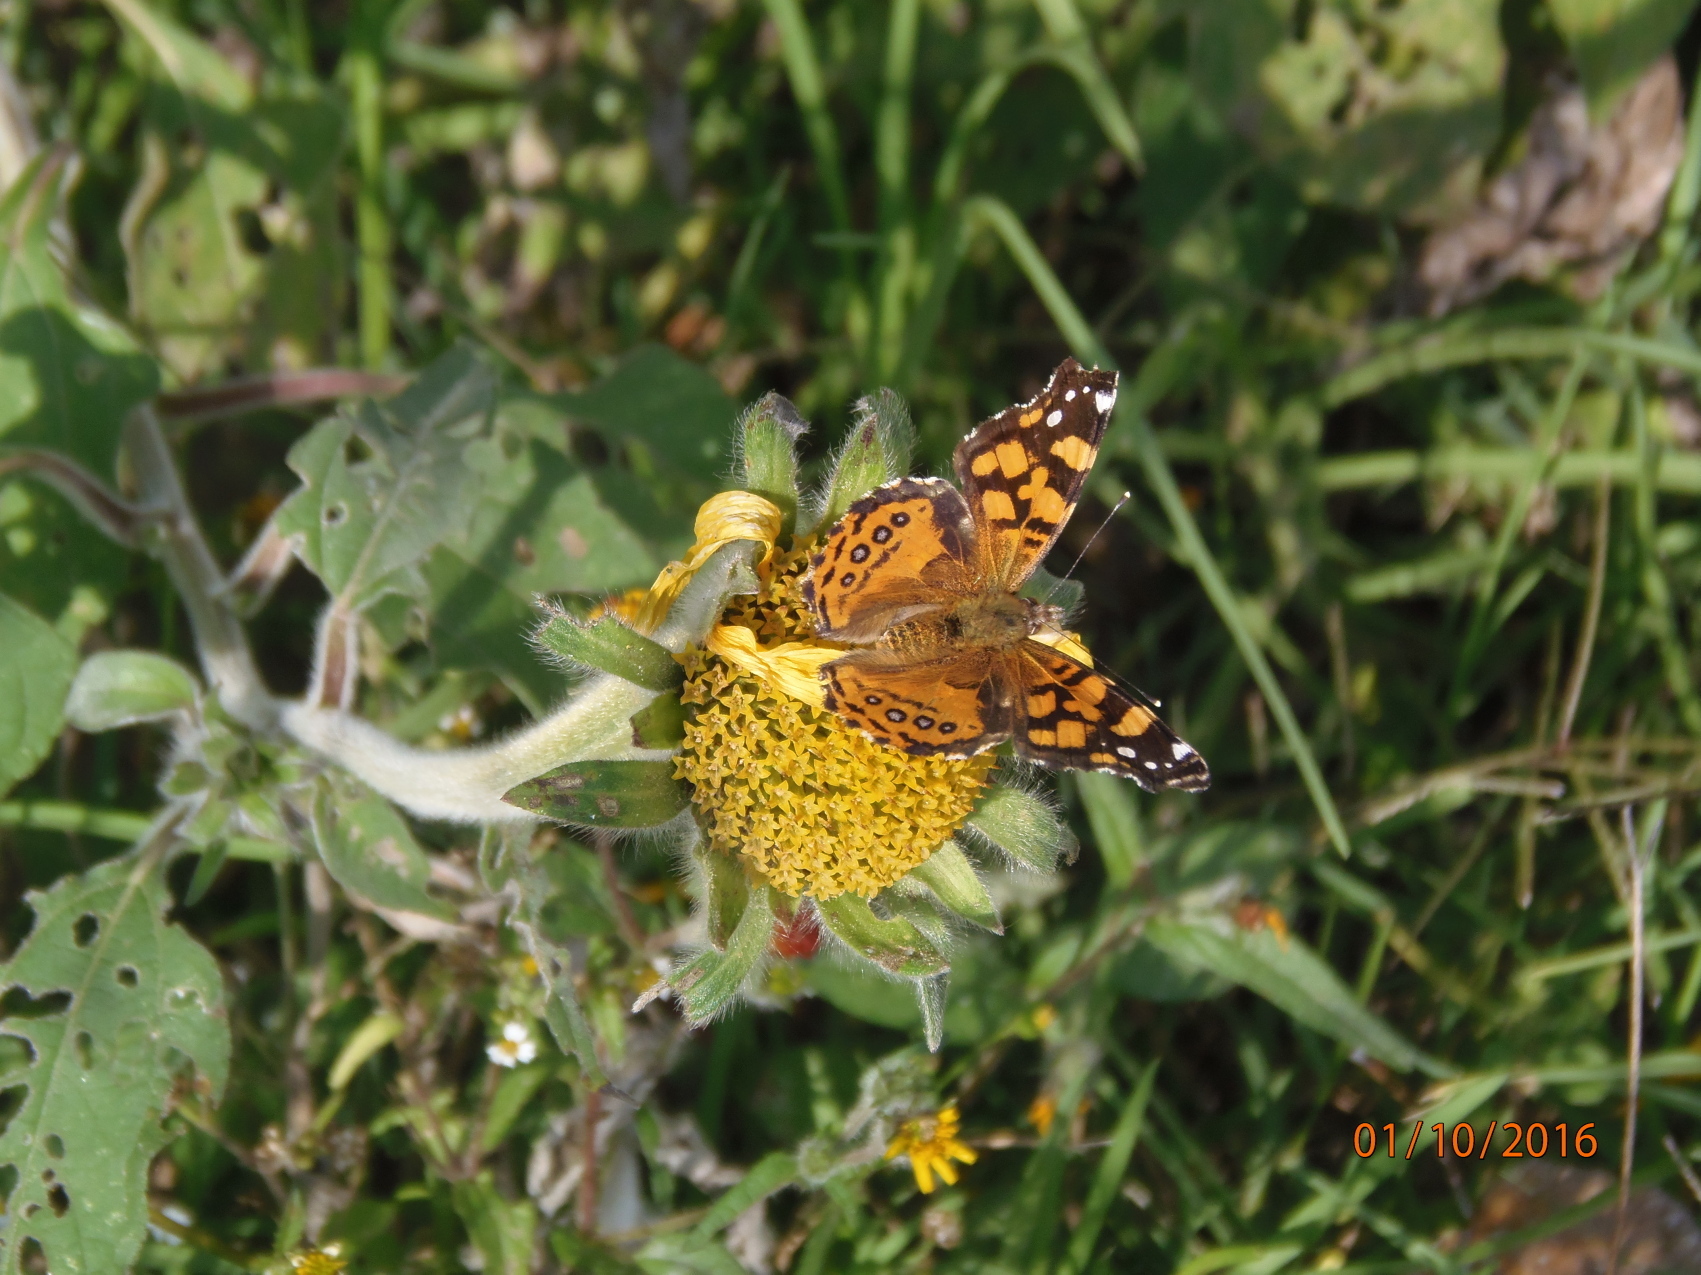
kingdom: Animalia
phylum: Arthropoda
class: Insecta
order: Lepidoptera
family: Nymphalidae
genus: Vanessa
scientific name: Vanessa annabella
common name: West coast lady
